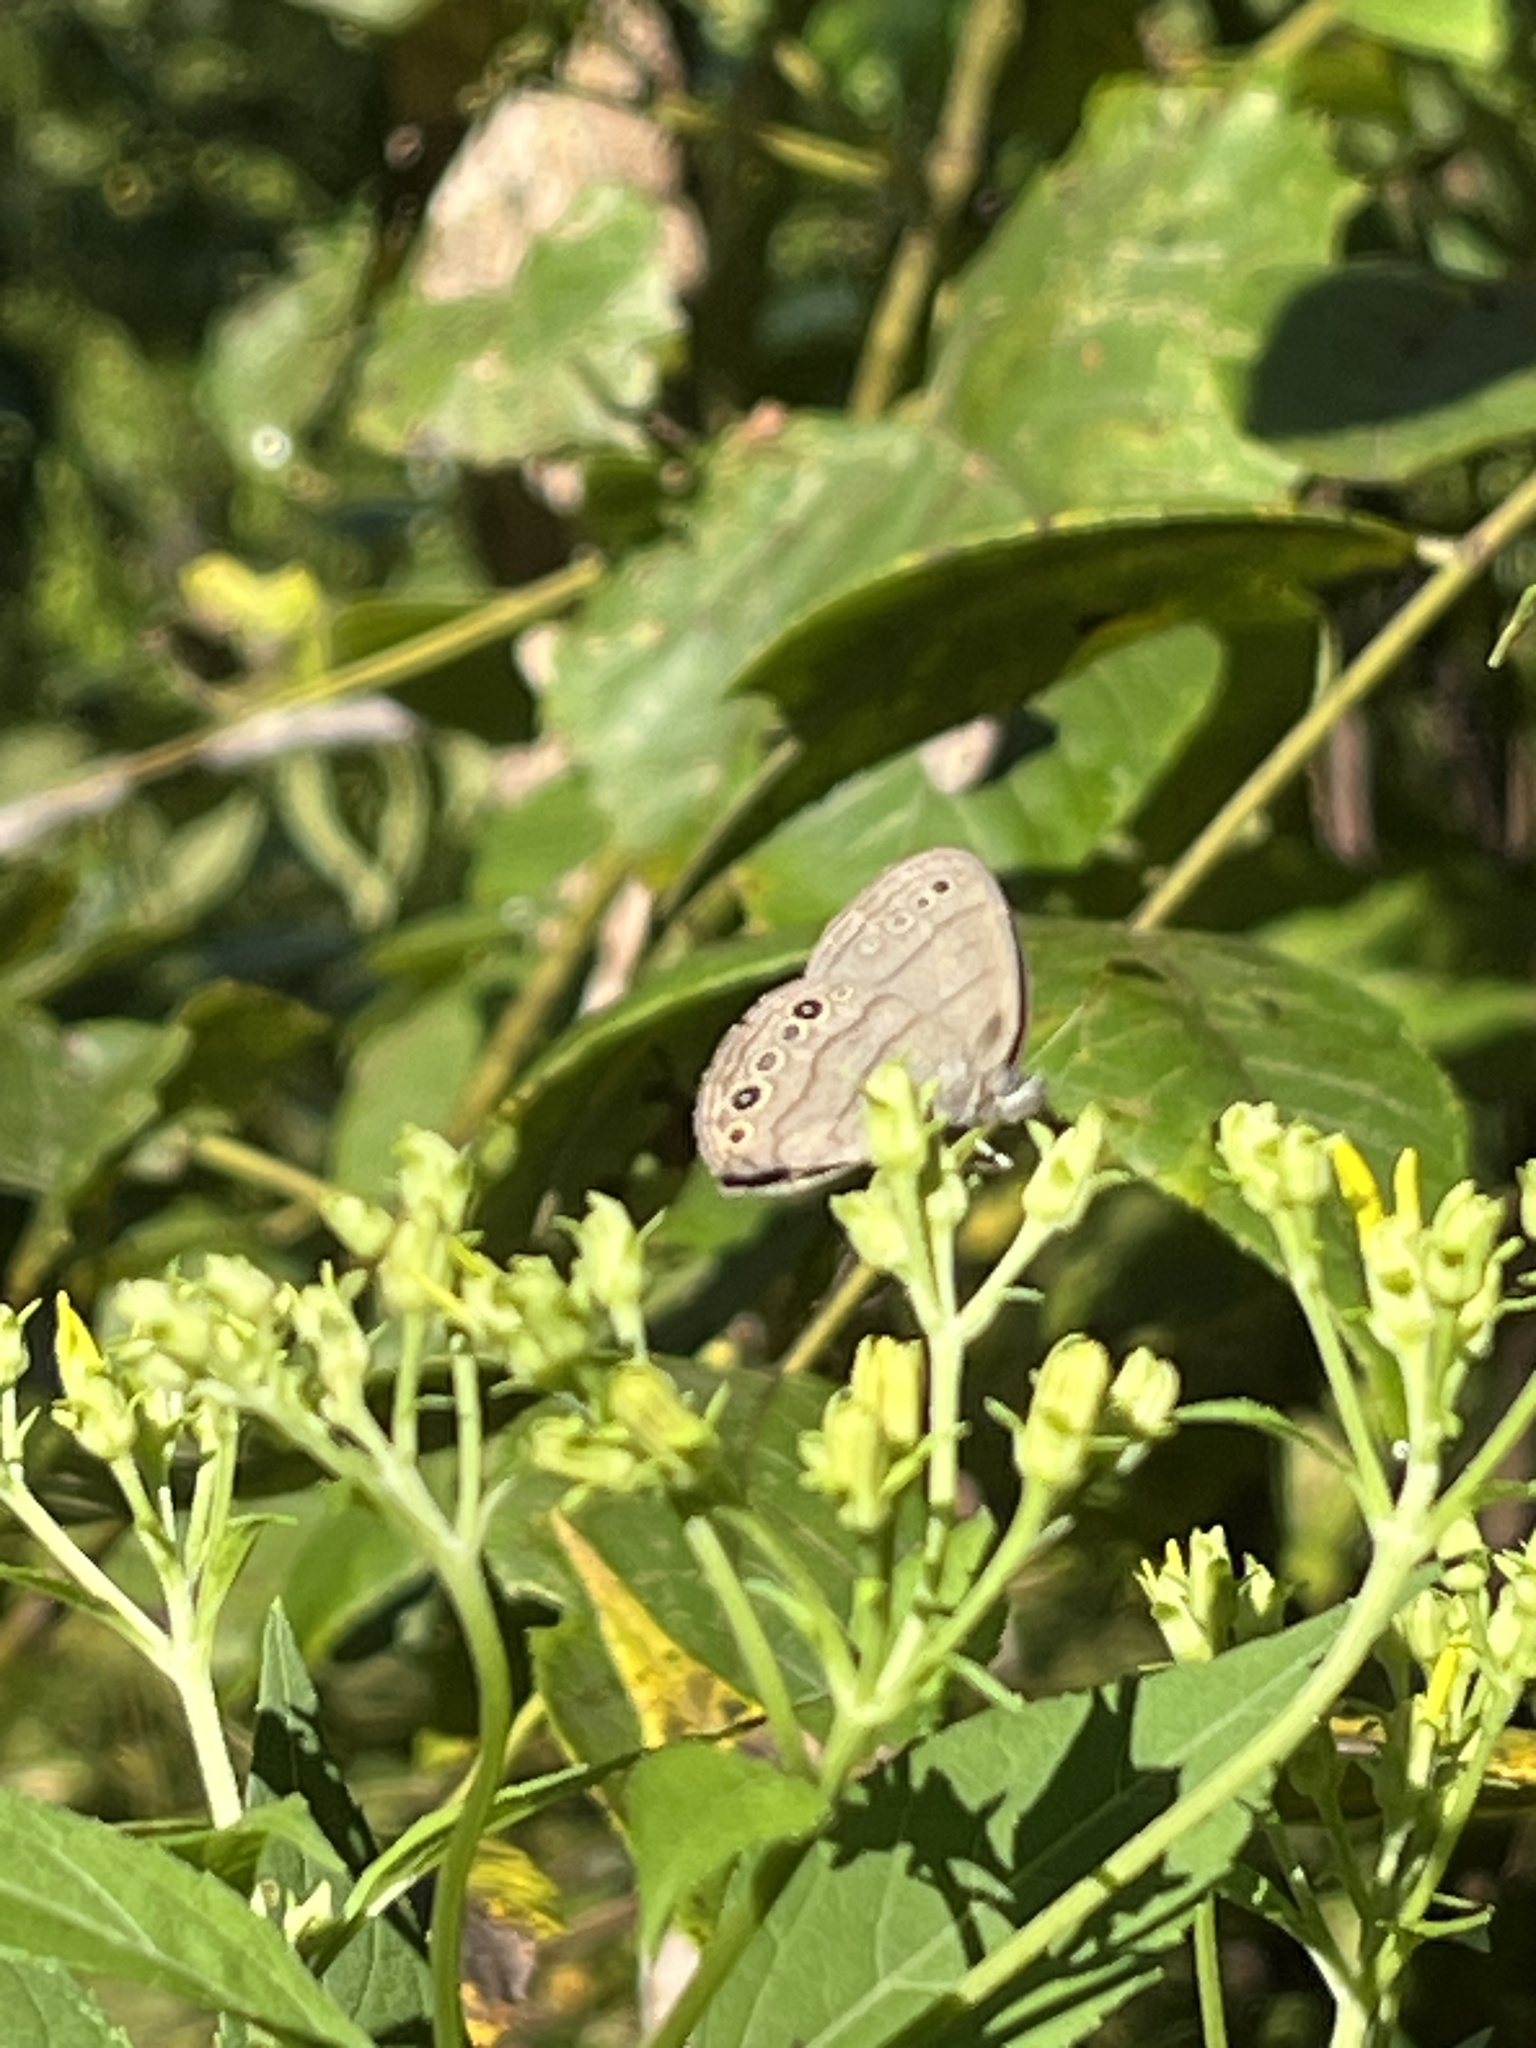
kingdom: Animalia
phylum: Arthropoda
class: Insecta
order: Lepidoptera
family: Nymphalidae
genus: Hermeuptychia
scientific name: Hermeuptychia hermes
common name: Hermes satyr
